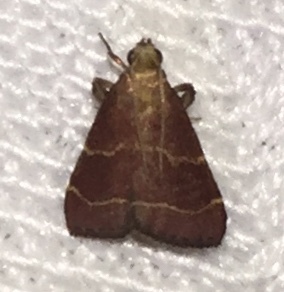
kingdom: Animalia
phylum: Arthropoda
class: Insecta
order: Lepidoptera
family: Pyralidae
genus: Arta
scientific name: Arta statalis
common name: Posturing arta moth
